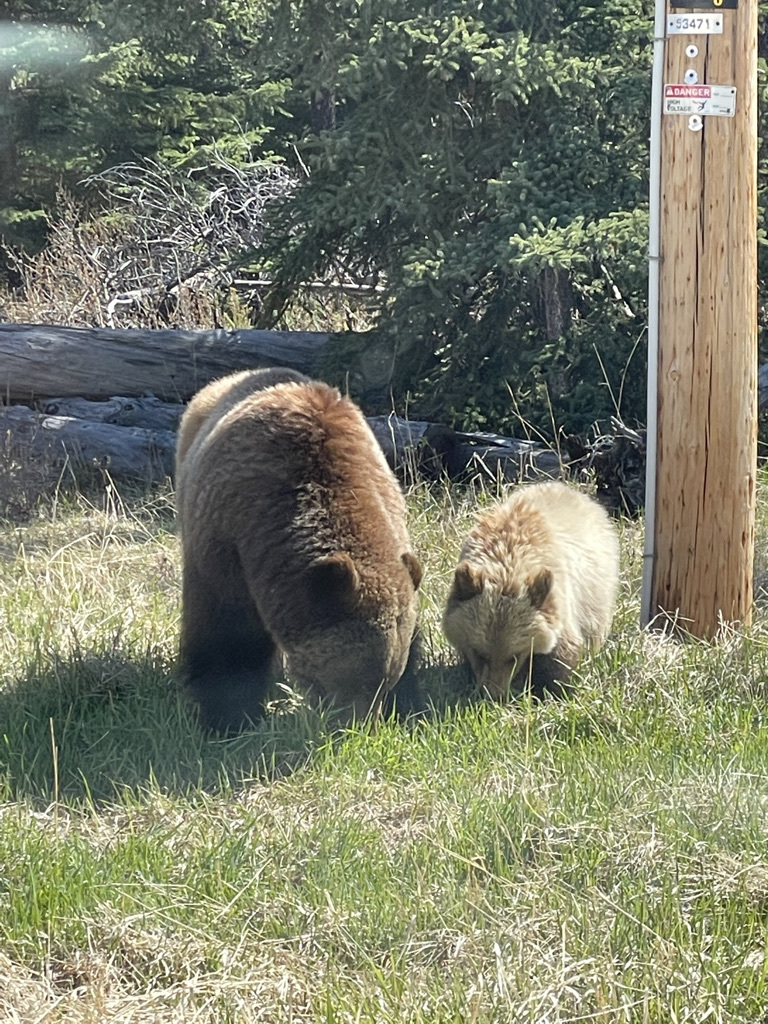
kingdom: Animalia
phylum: Chordata
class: Mammalia
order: Carnivora
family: Ursidae
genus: Ursus
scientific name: Ursus arctos
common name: Brown bear
